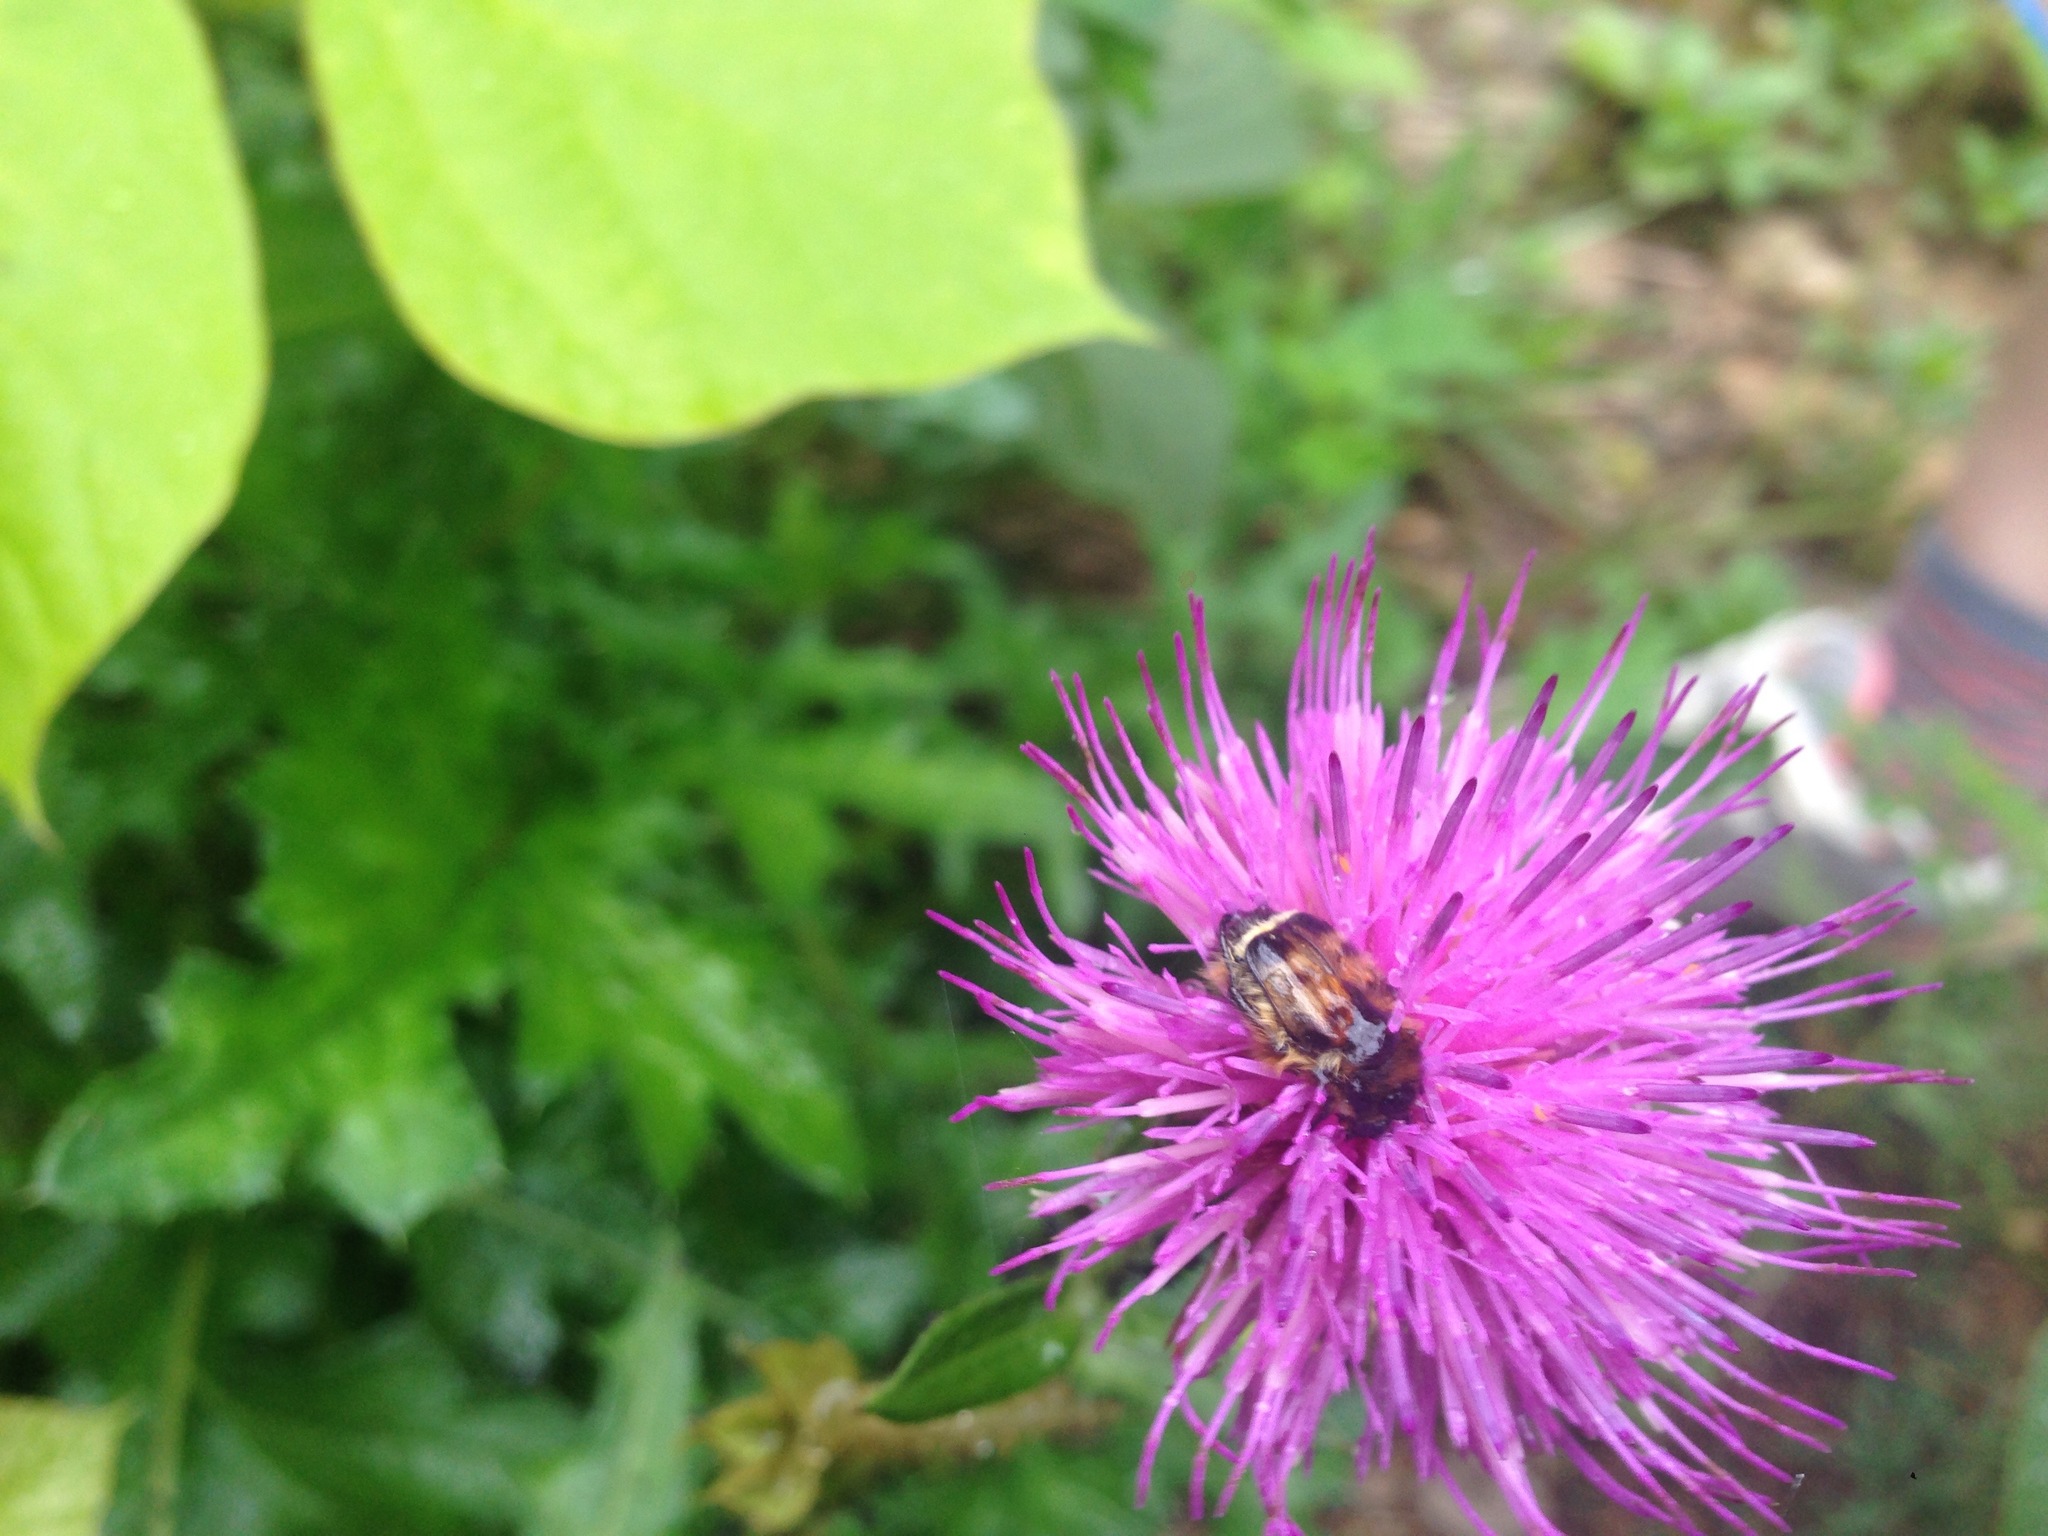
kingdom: Animalia
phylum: Arthropoda
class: Insecta
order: Coleoptera
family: Scarabaeidae
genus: Lasiotrichius
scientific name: Lasiotrichius succinctus
